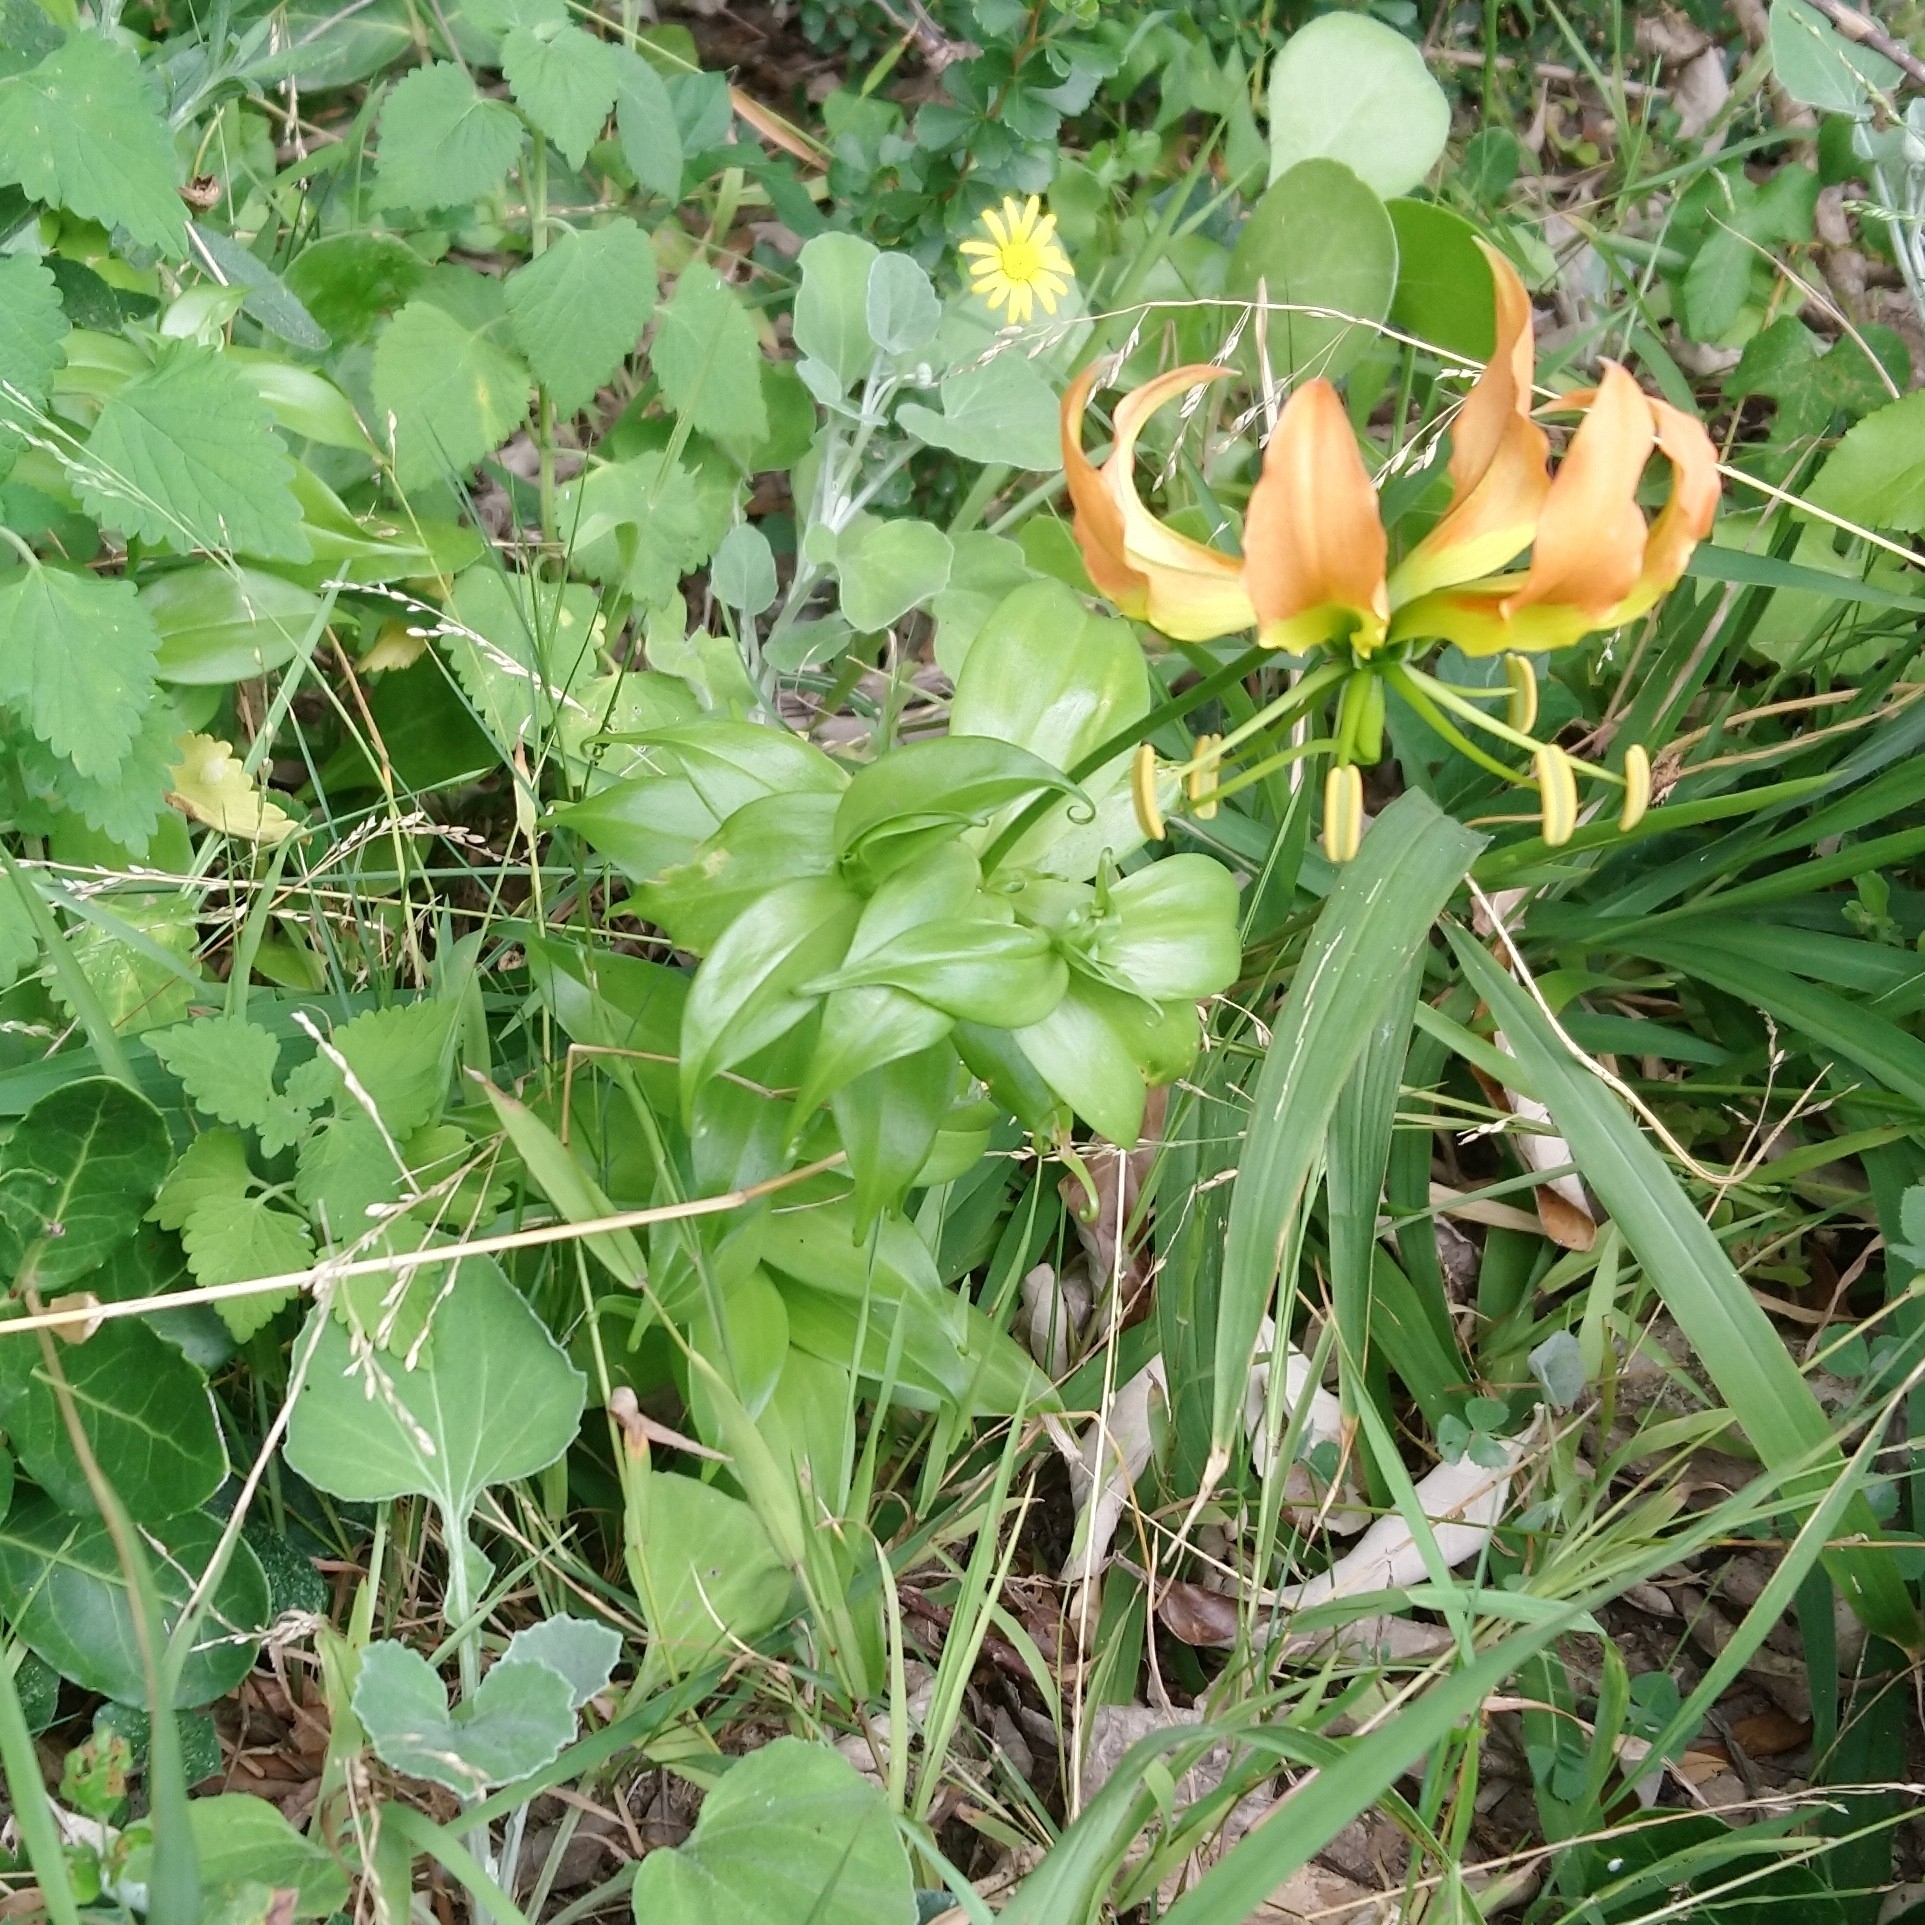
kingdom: Plantae
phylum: Tracheophyta
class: Liliopsida
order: Liliales
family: Colchicaceae
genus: Gloriosa
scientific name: Gloriosa superba
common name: Flame lily
